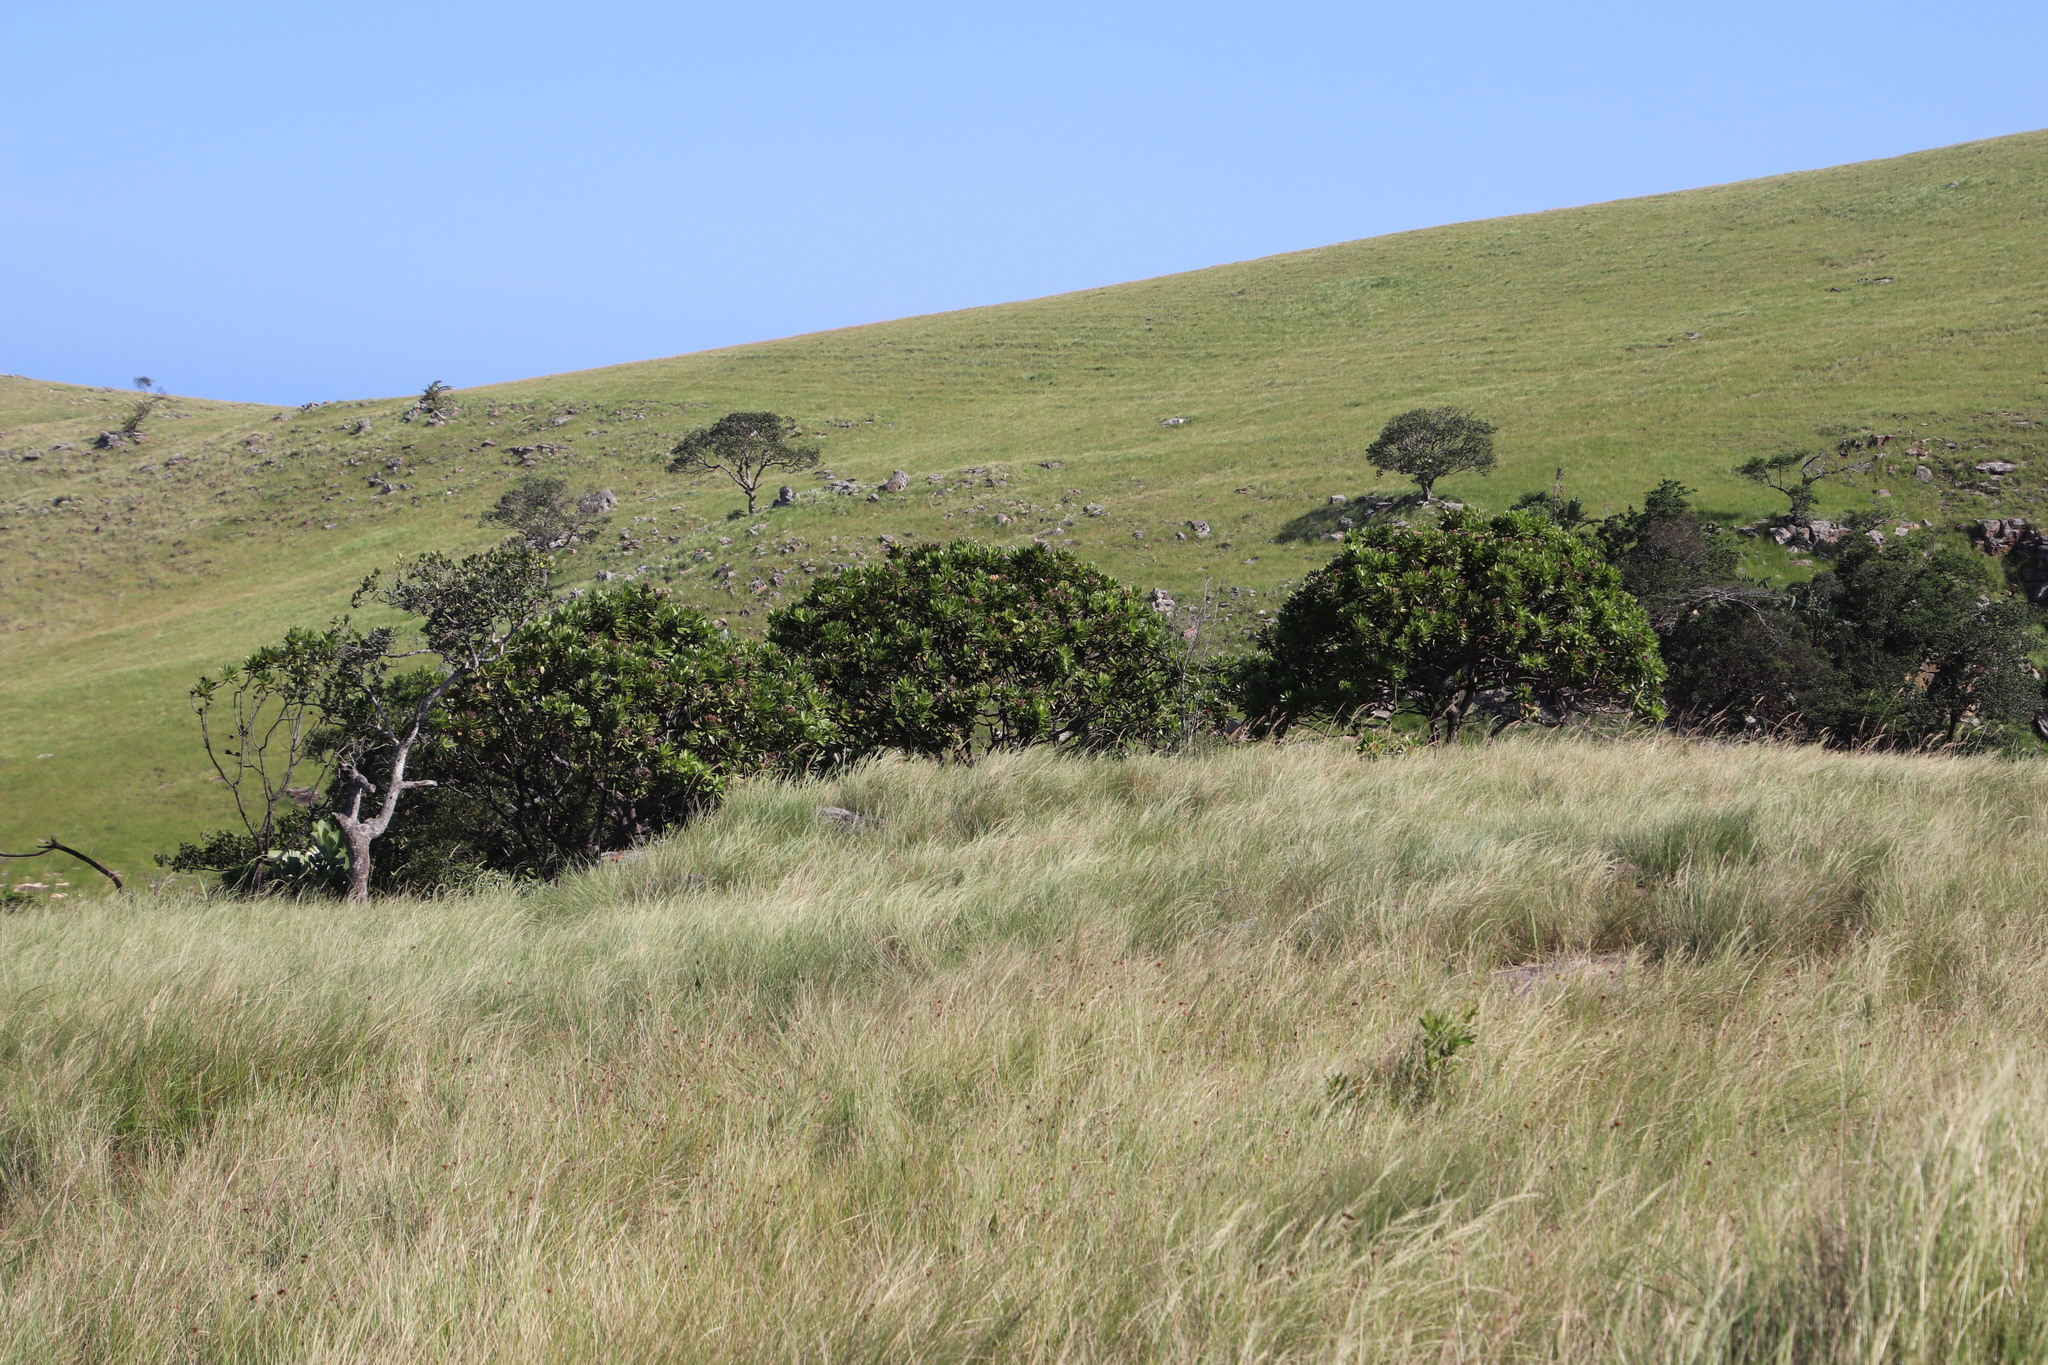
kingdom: Plantae
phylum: Tracheophyta
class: Magnoliopsida
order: Proteales
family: Proteaceae
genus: Protea
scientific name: Protea roupelliae
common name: Silver sugarbush
